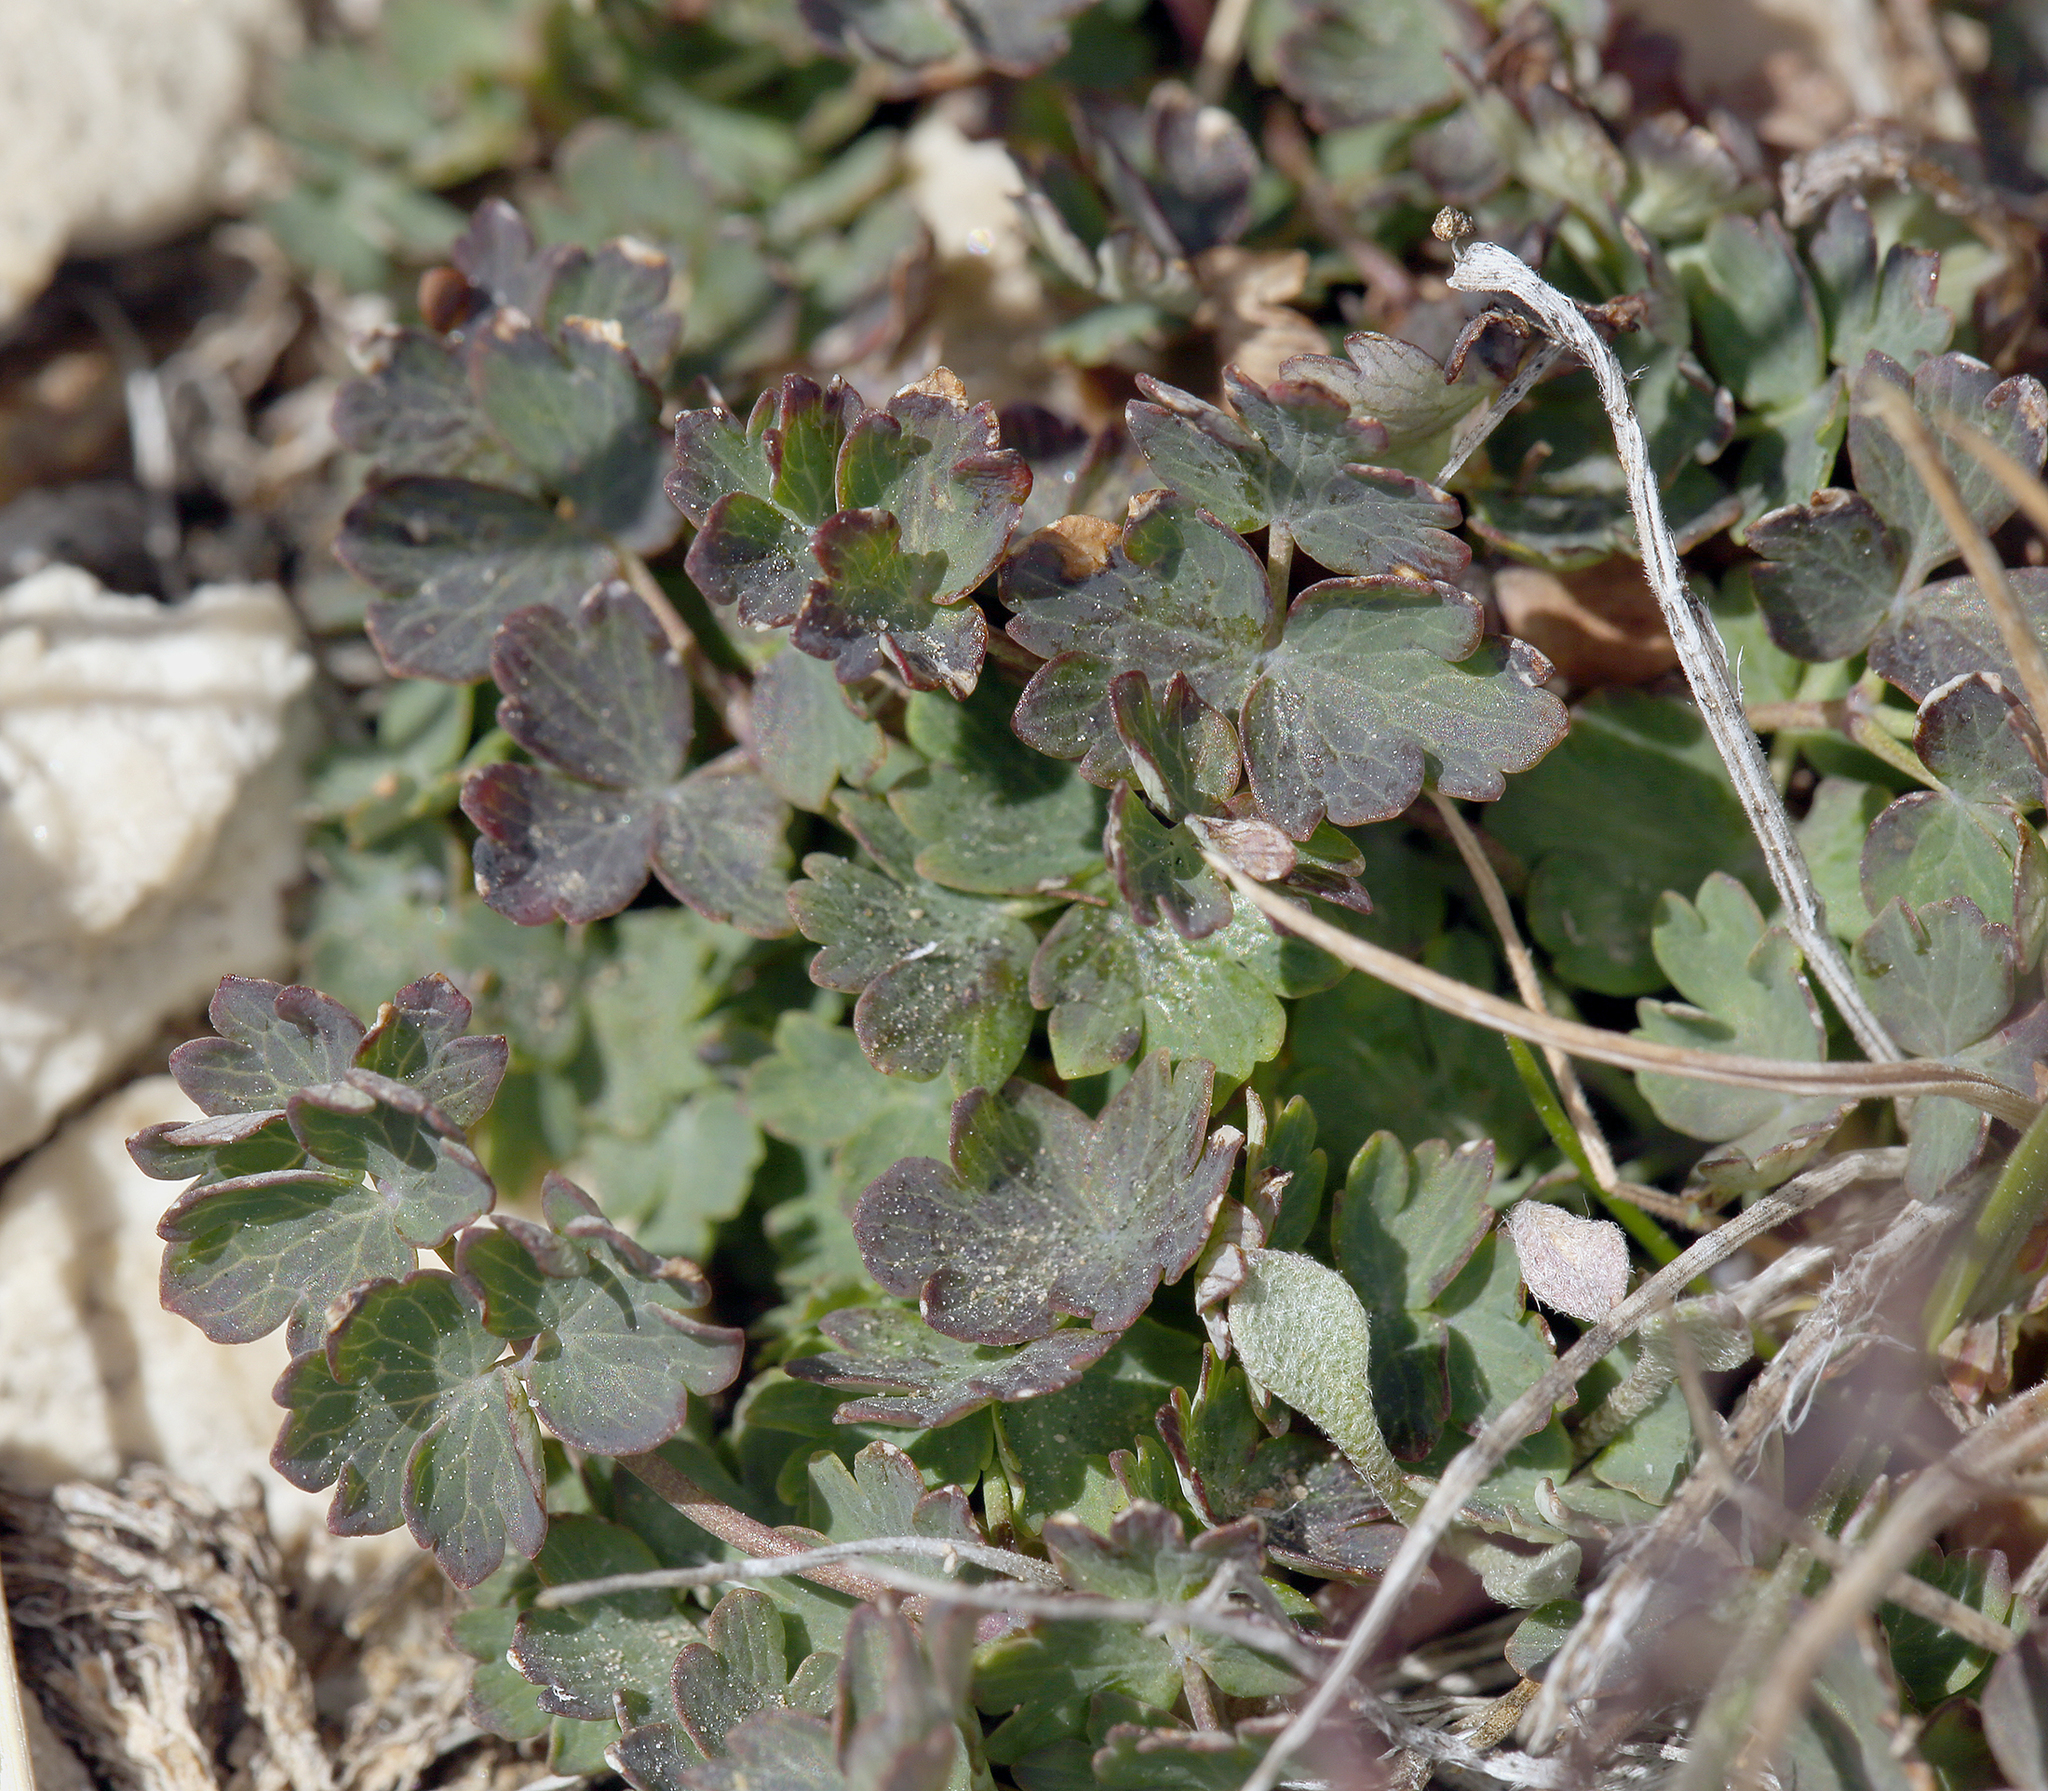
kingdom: Plantae
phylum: Tracheophyta
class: Magnoliopsida
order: Ranunculales
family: Ranunculaceae
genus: Thalictrum
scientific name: Thalictrum alpinum
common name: Alpine meadow-rue
